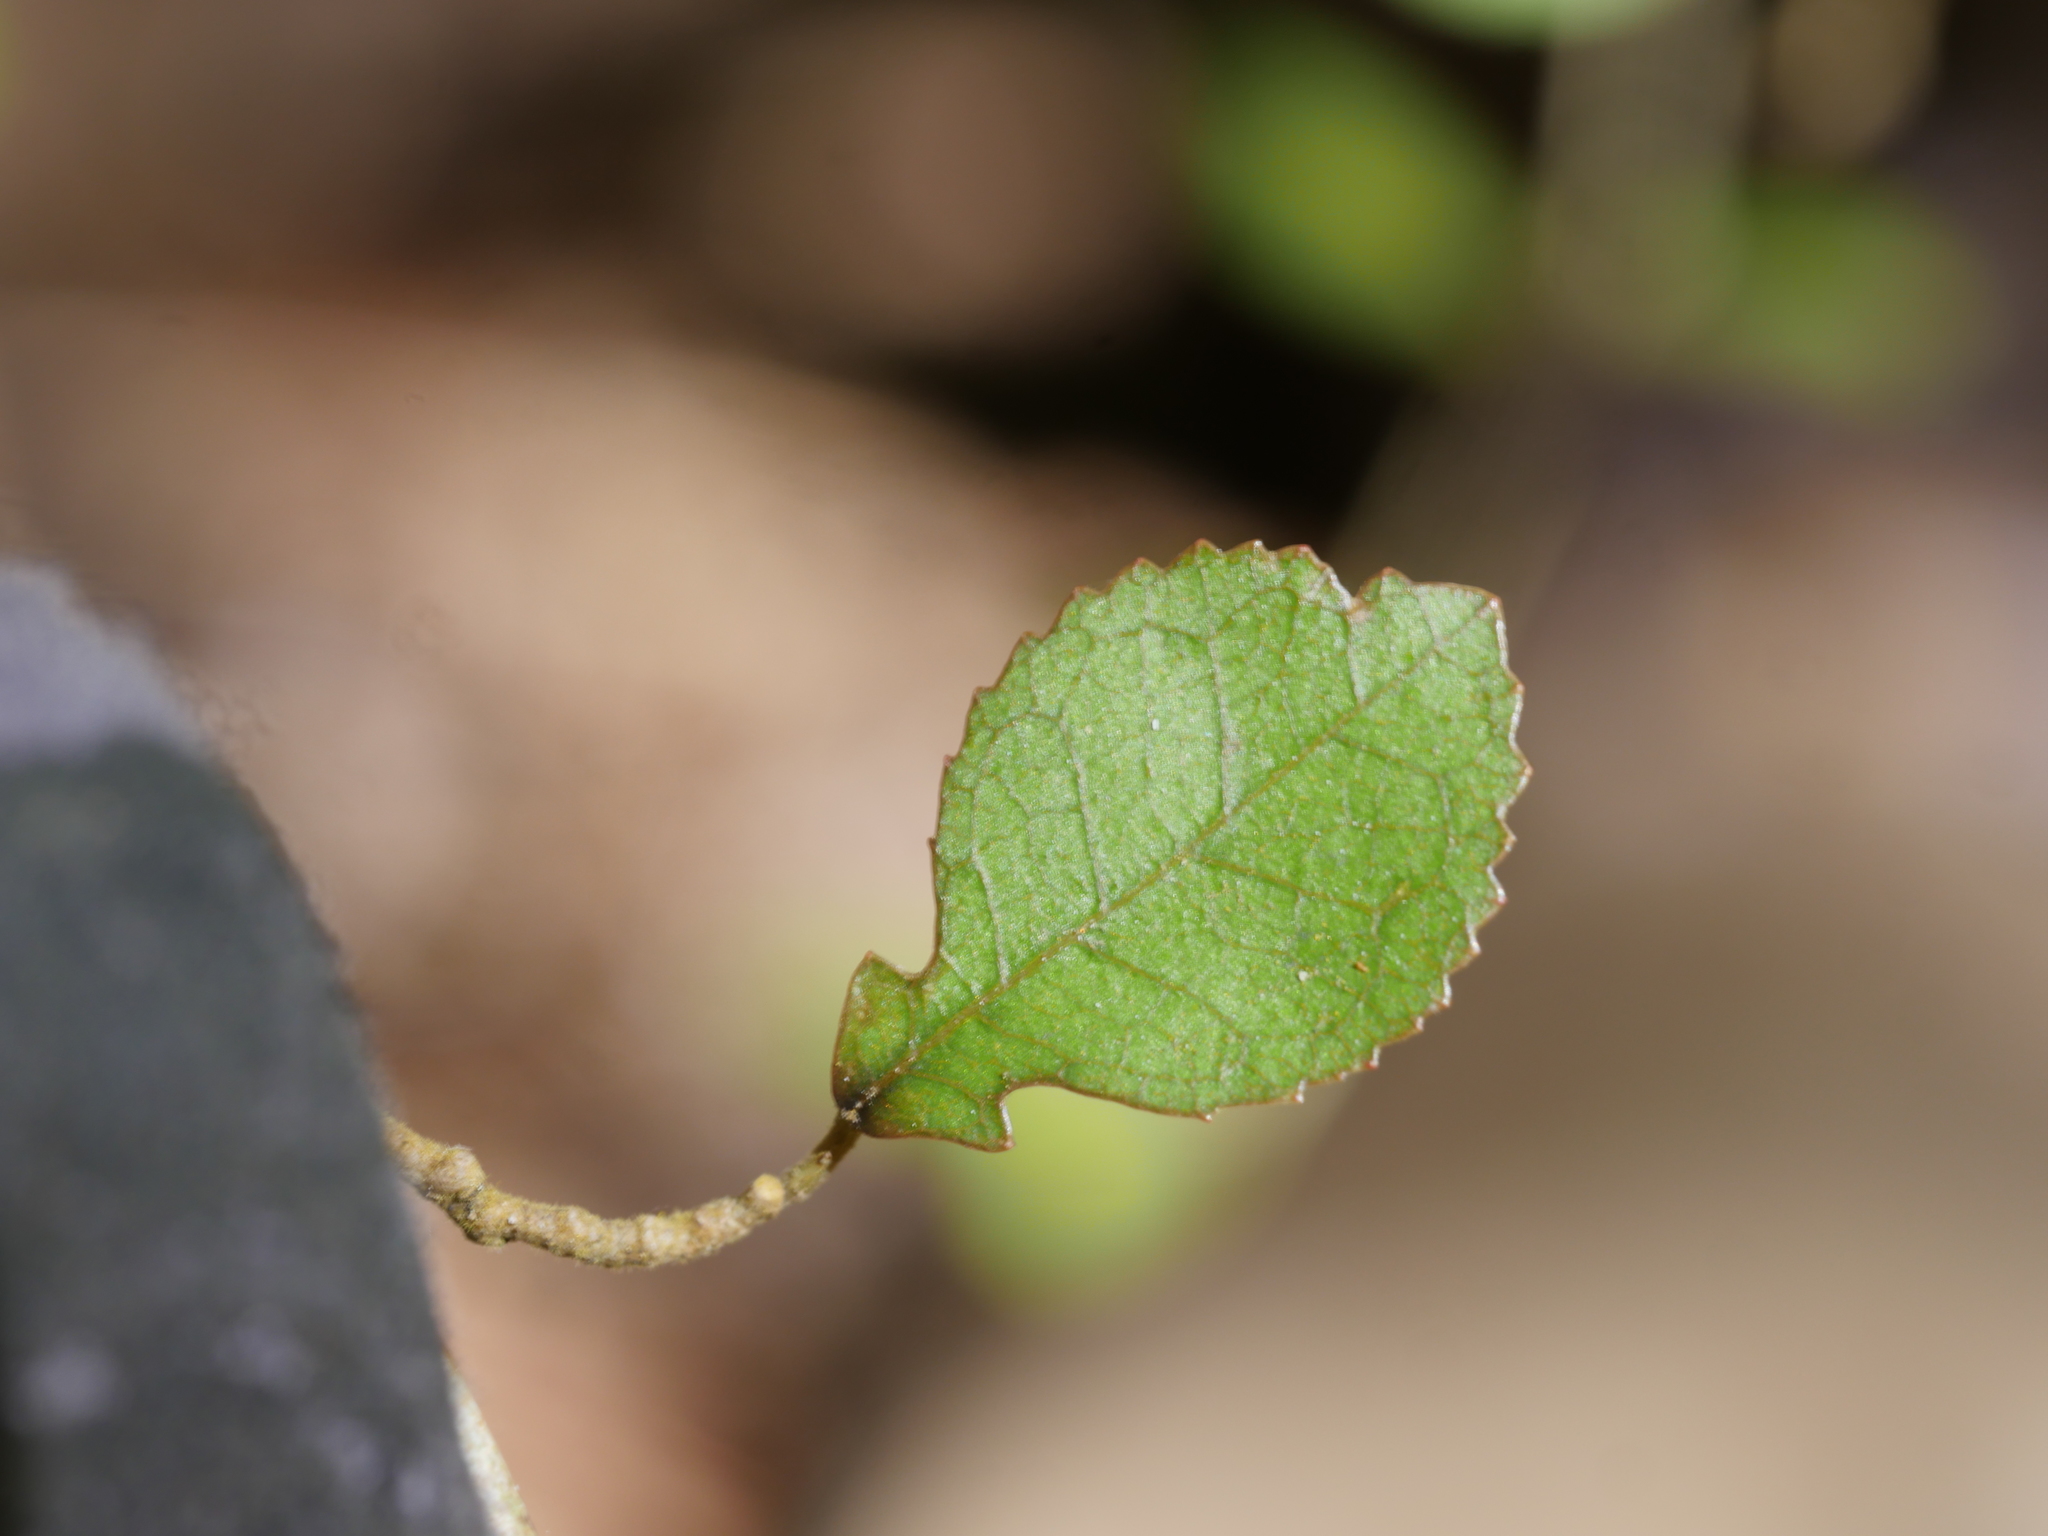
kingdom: Plantae
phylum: Tracheophyta
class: Magnoliopsida
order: Rosales
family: Moraceae
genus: Paratrophis
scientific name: Paratrophis microphylla
